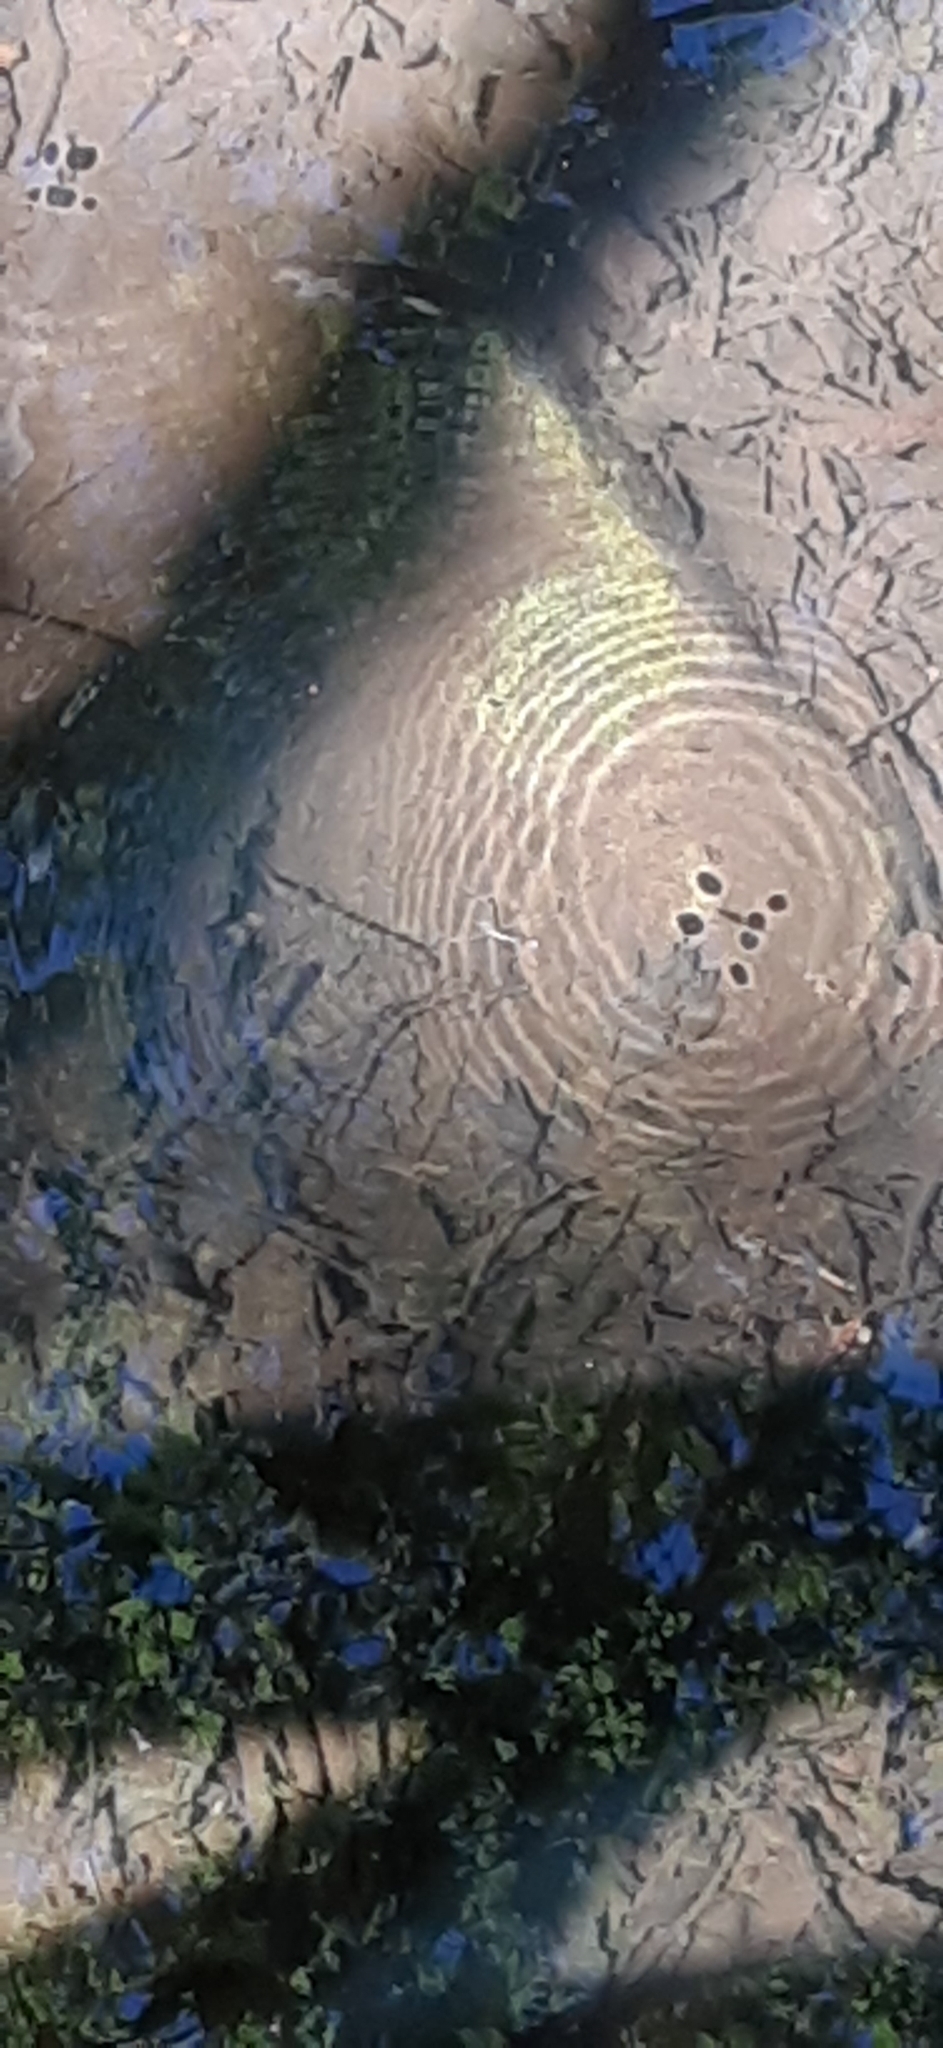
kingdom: Animalia
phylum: Arthropoda
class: Insecta
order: Hemiptera
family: Gerridae
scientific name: Gerridae
